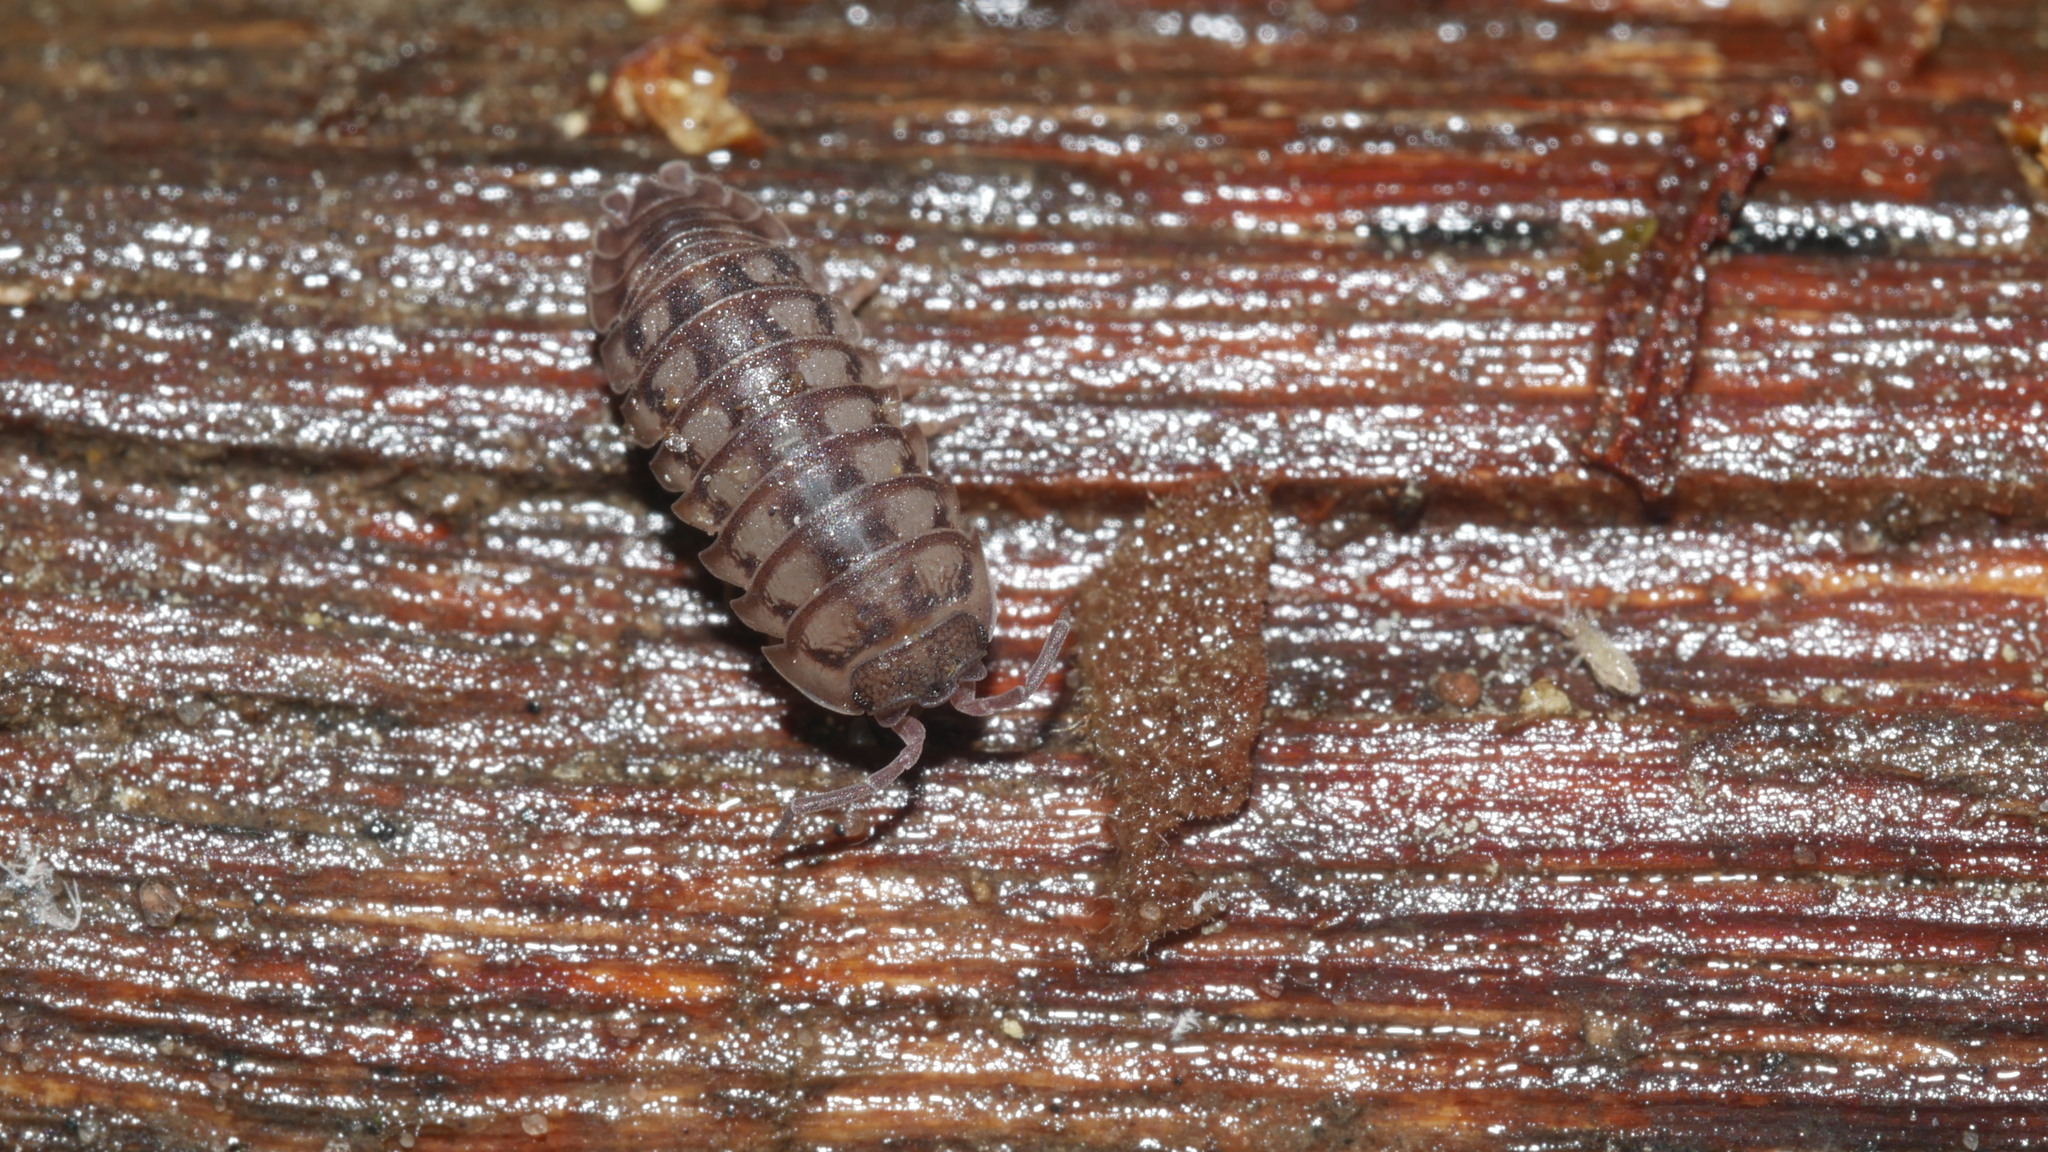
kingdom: Animalia
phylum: Arthropoda
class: Malacostraca
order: Isopoda
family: Armadillidiidae
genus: Armadillidium
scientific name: Armadillidium nasatum
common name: Isopod
